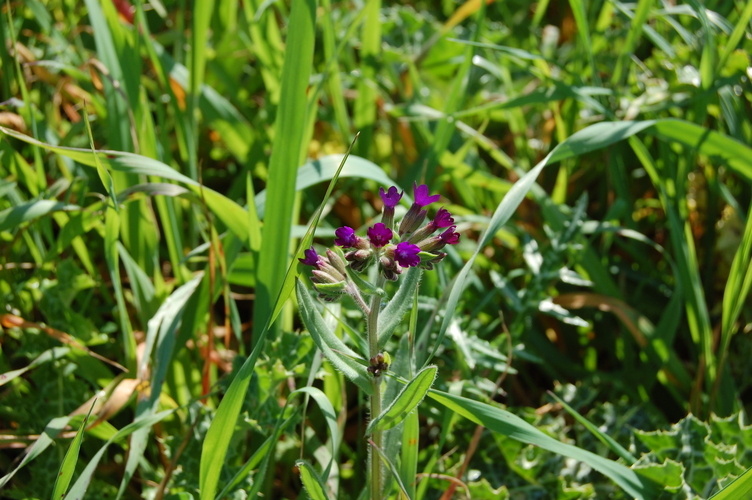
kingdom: Plantae
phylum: Tracheophyta
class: Magnoliopsida
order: Boraginales
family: Boraginaceae
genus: Anchusa
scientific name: Anchusa hybrida
